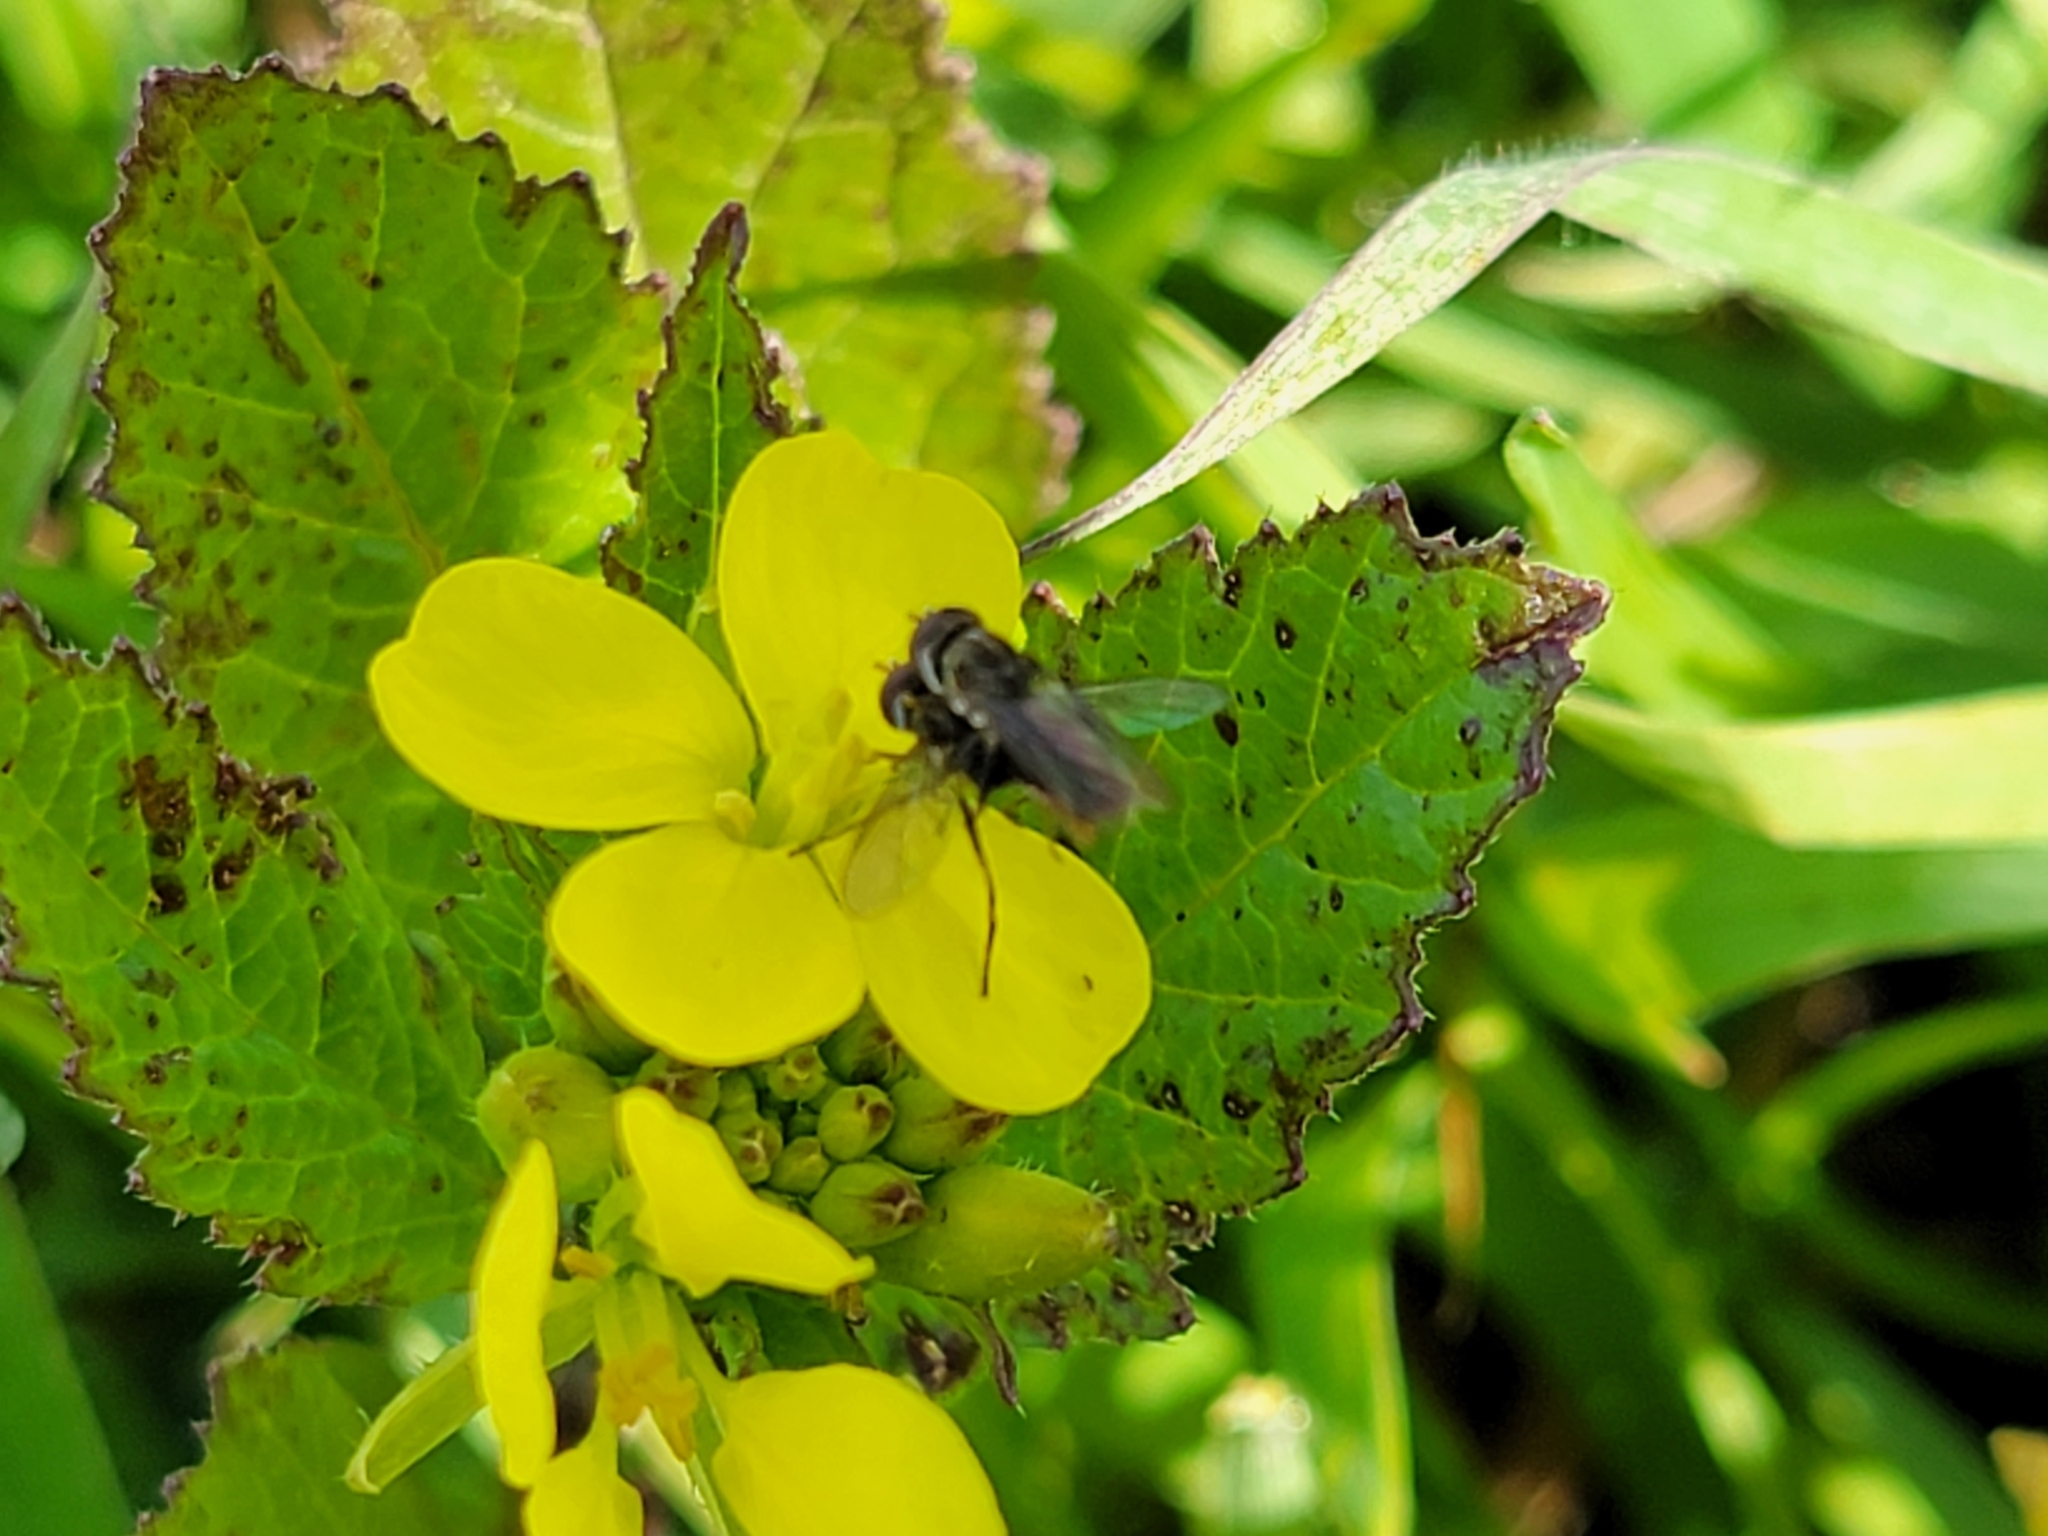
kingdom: Animalia
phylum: Arthropoda
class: Insecta
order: Diptera
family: Syrphidae
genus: Toxomerus
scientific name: Toxomerus
